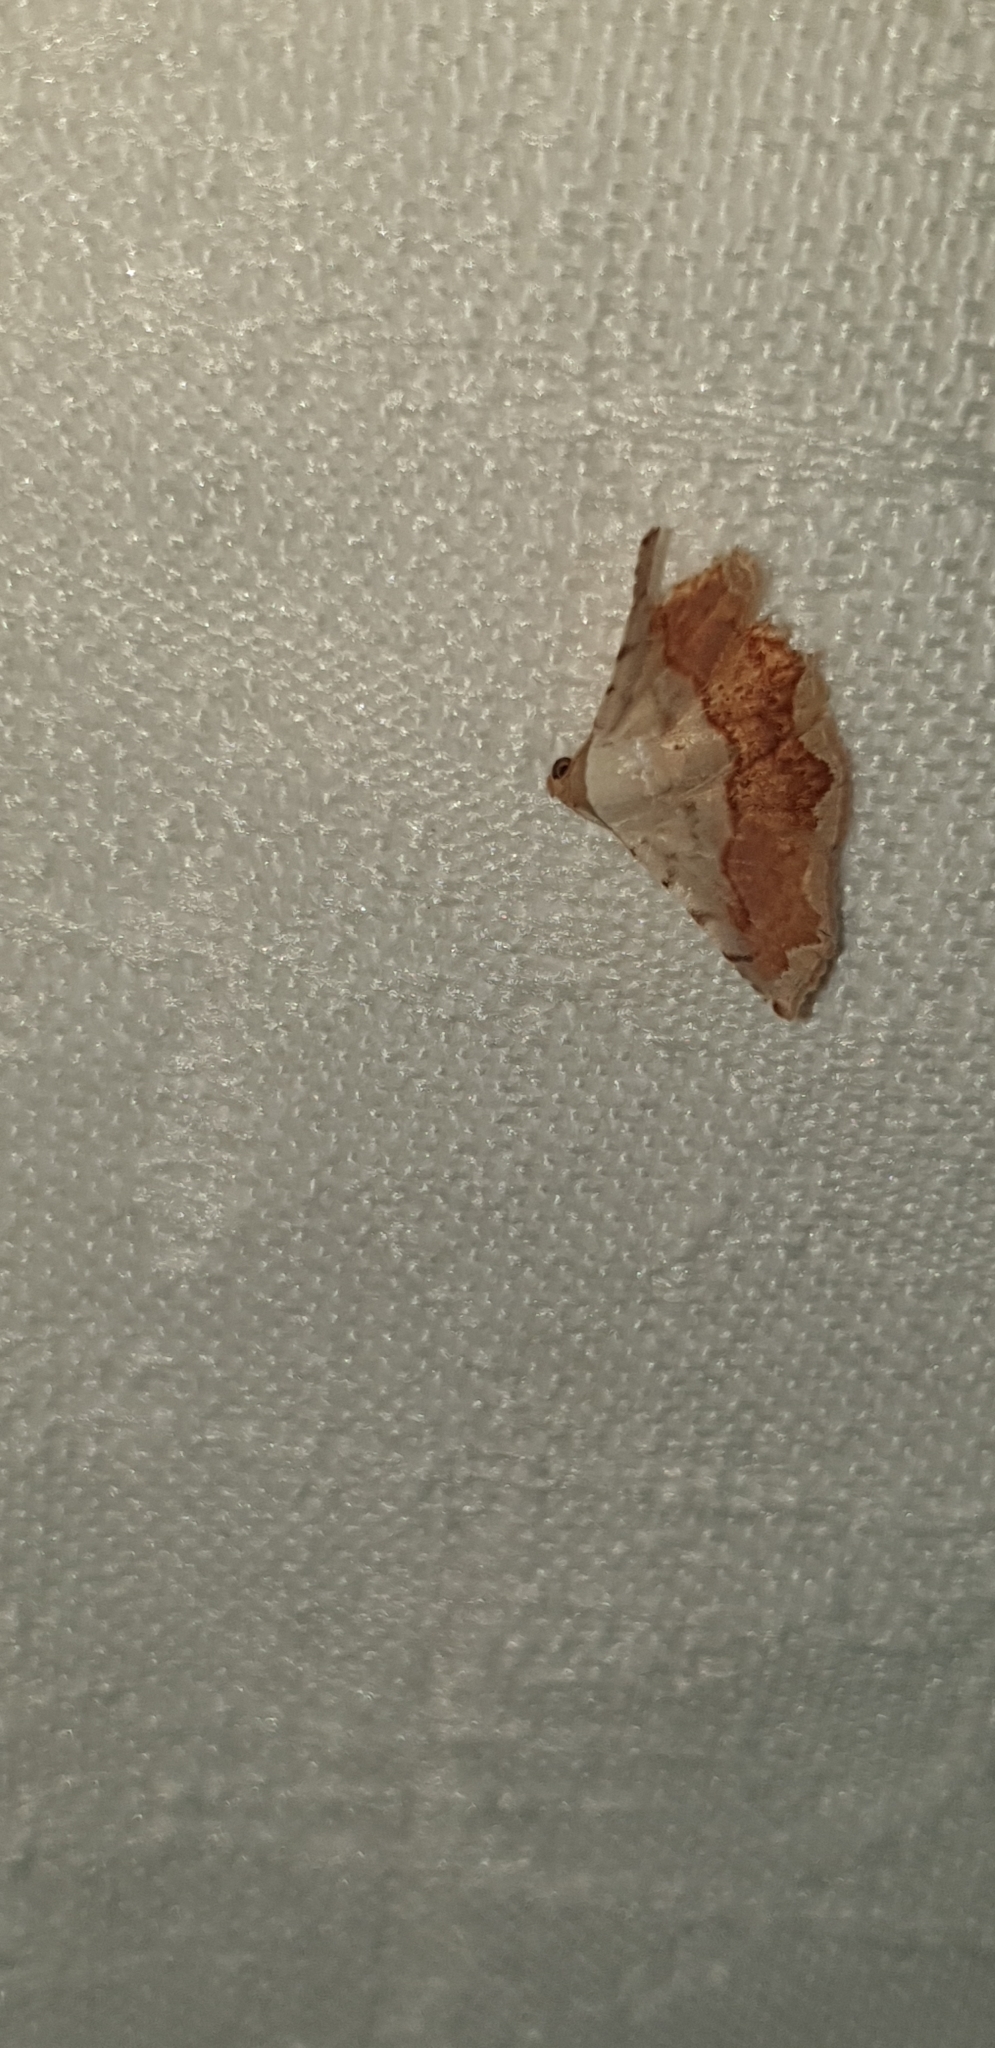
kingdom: Animalia
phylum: Arthropoda
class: Insecta
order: Lepidoptera
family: Noctuidae
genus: Eublemma
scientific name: Eublemma
